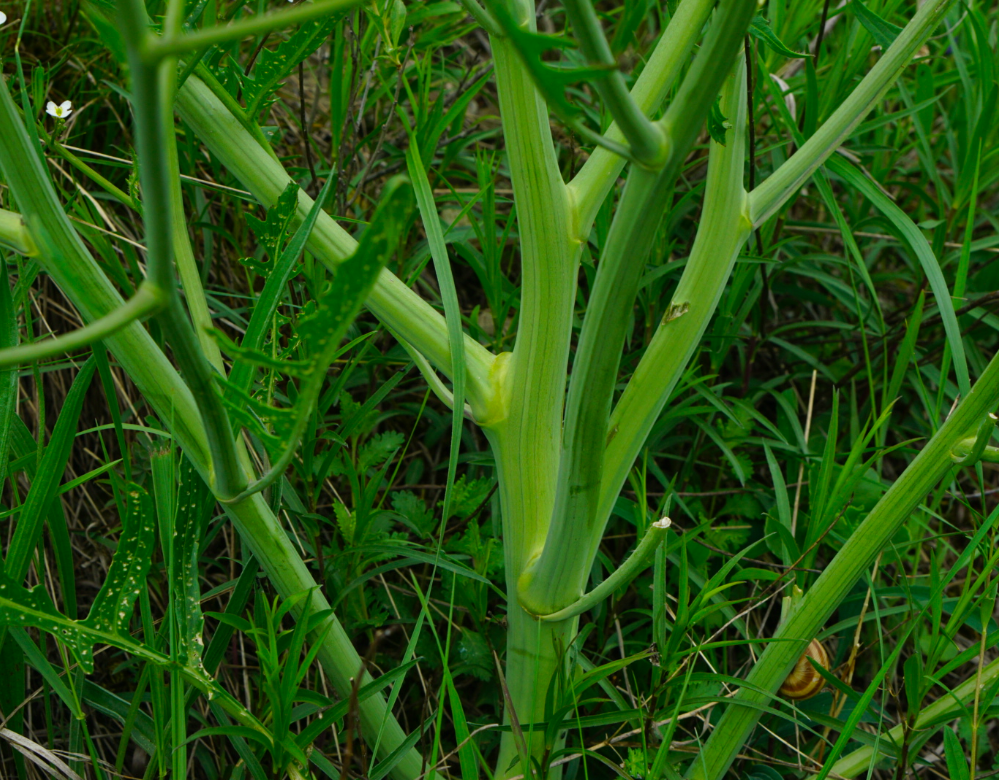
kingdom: Plantae
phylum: Tracheophyta
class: Magnoliopsida
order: Brassicales
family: Brassicaceae
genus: Crambe
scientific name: Crambe tataria
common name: Tartarian breadplant
